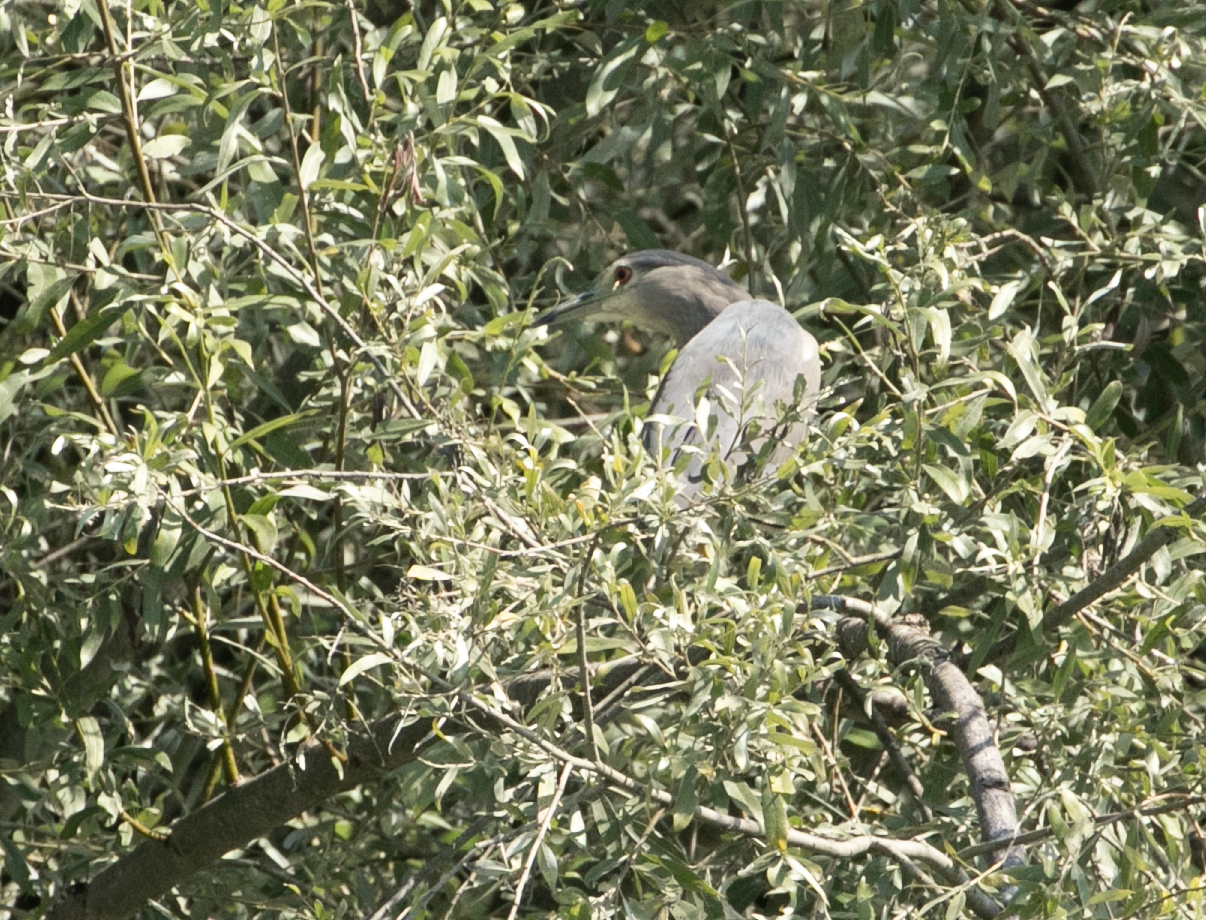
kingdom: Animalia
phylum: Chordata
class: Aves
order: Pelecaniformes
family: Ardeidae
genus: Nycticorax
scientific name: Nycticorax nycticorax
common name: Black-crowned night heron
